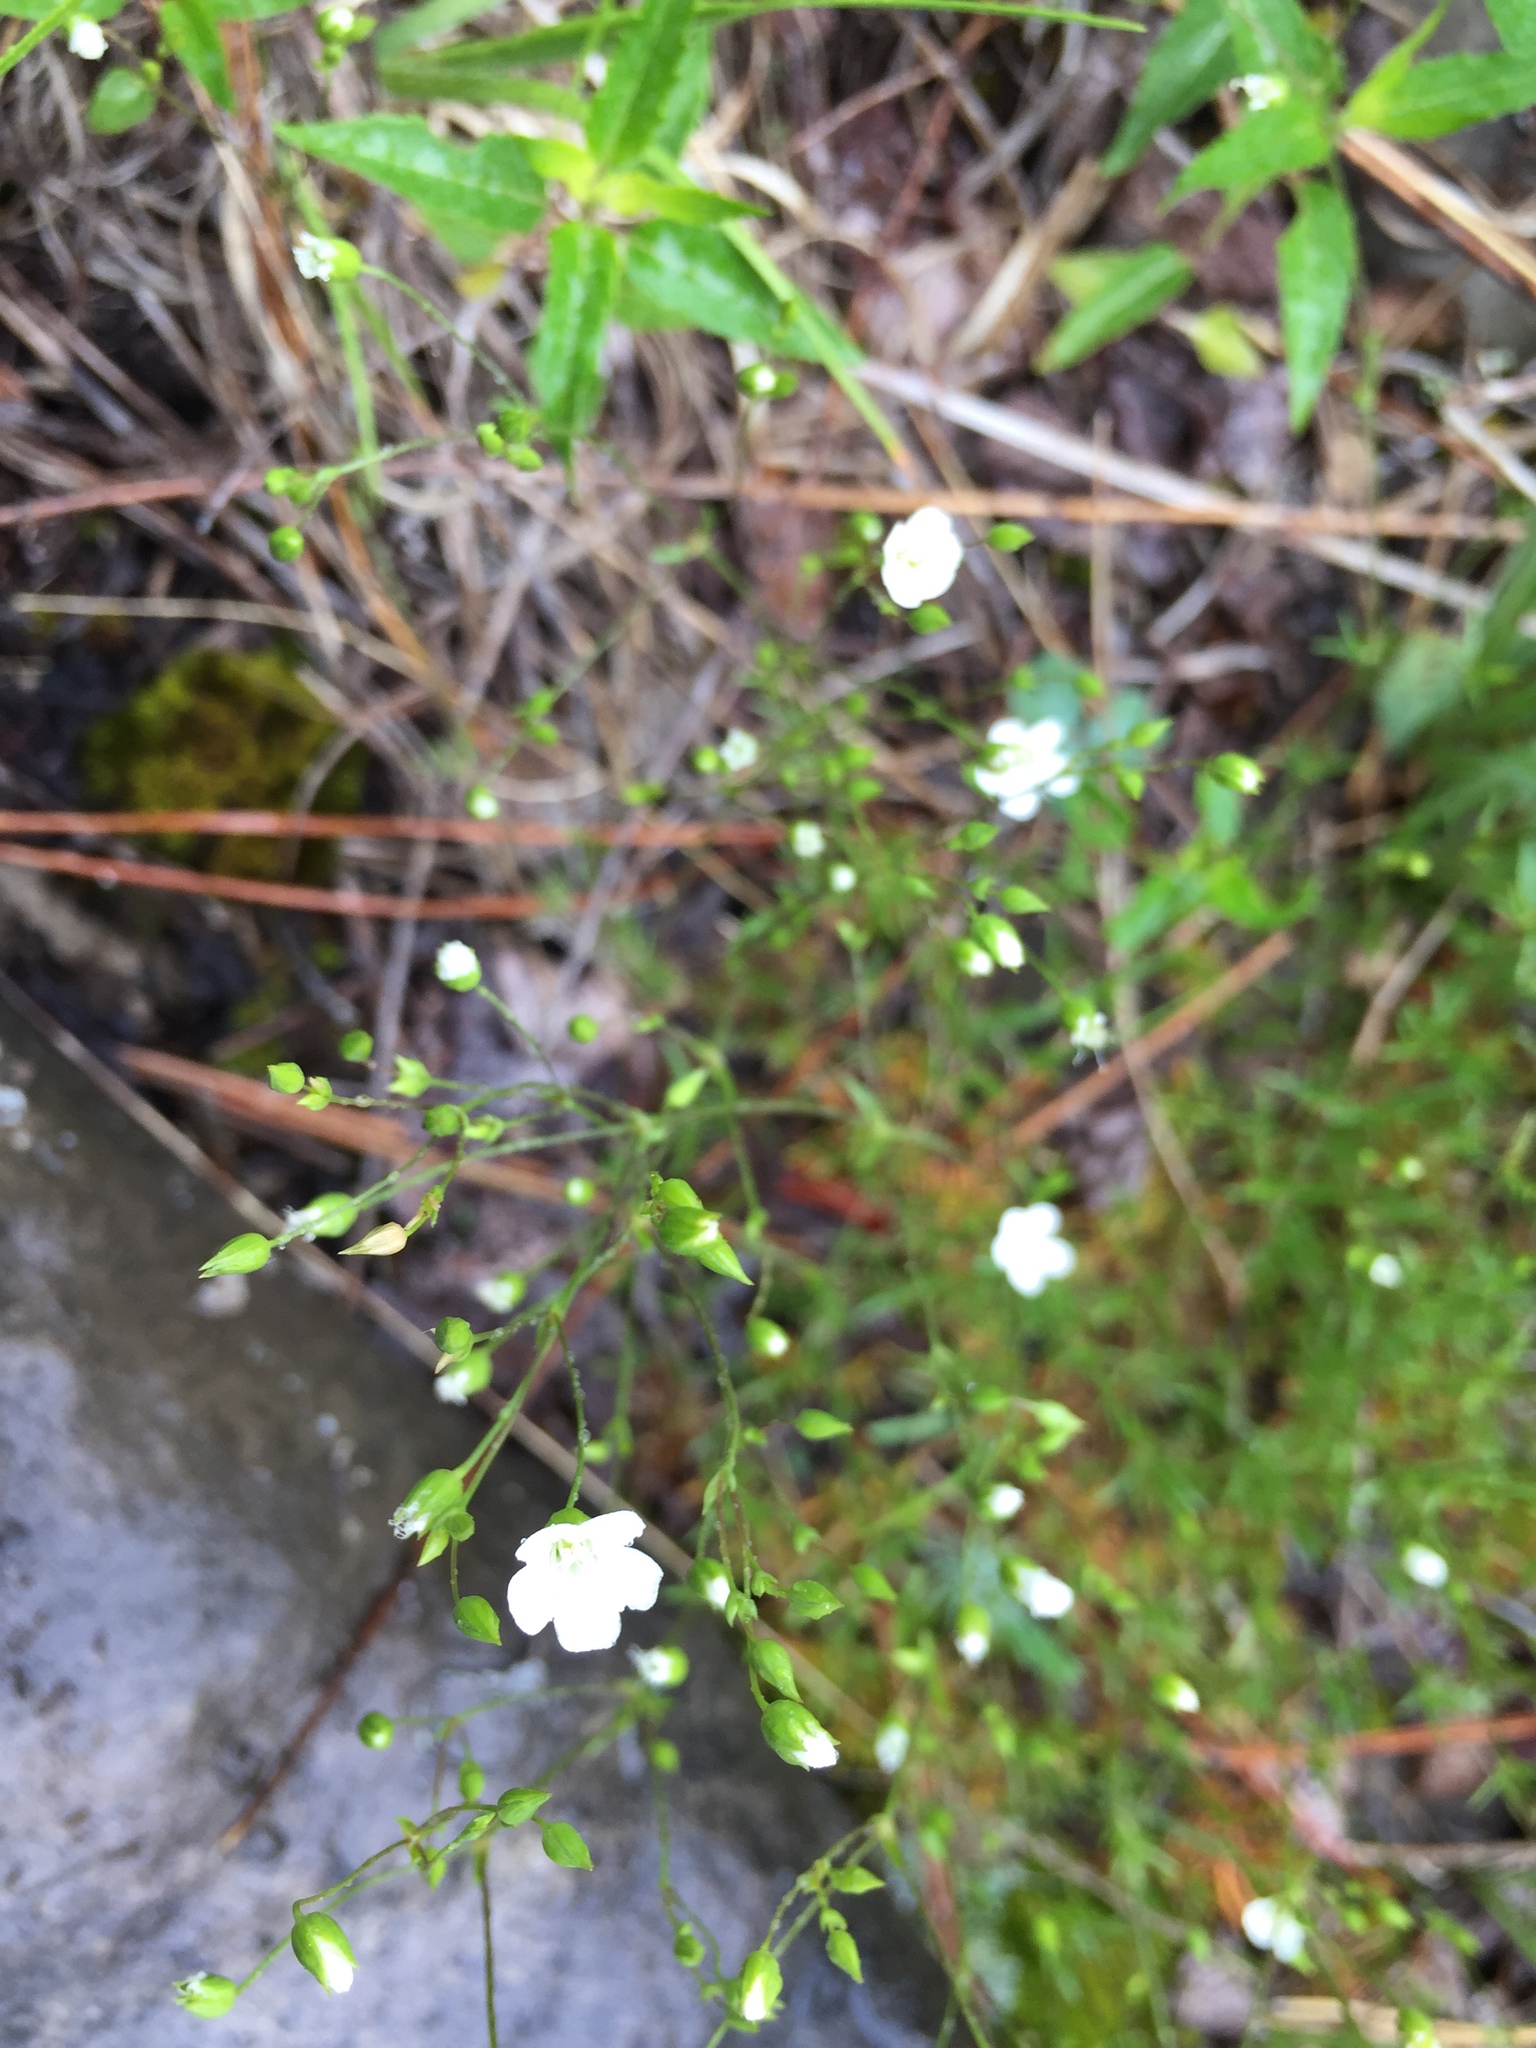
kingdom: Plantae
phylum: Tracheophyta
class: Magnoliopsida
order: Caryophyllales
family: Caryophyllaceae
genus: Sabulina
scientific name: Sabulina michauxii
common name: Michaux's stitchwort
